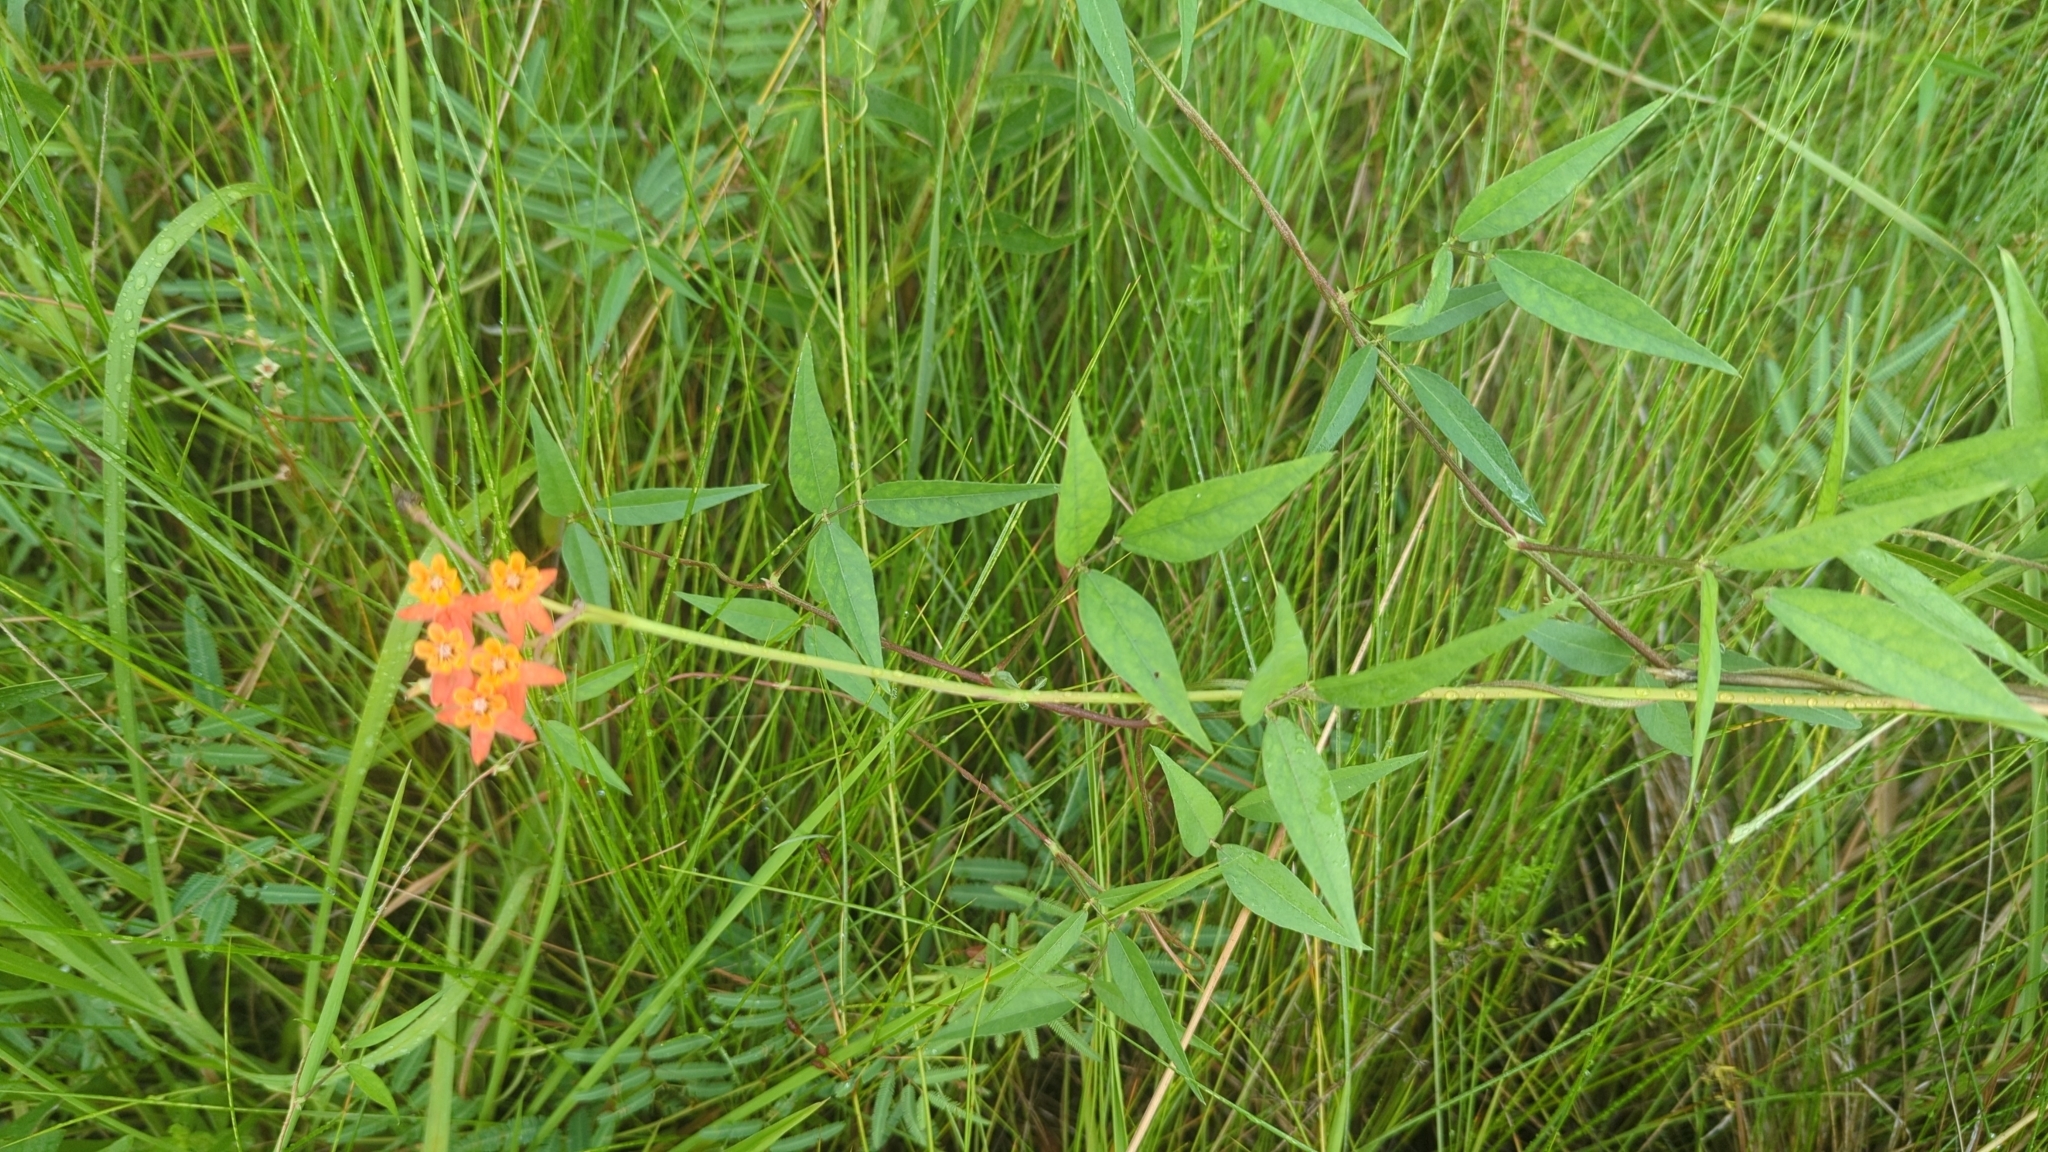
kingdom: Plantae
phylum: Tracheophyta
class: Magnoliopsida
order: Gentianales
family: Apocynaceae
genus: Asclepias
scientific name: Asclepias lanceolata
